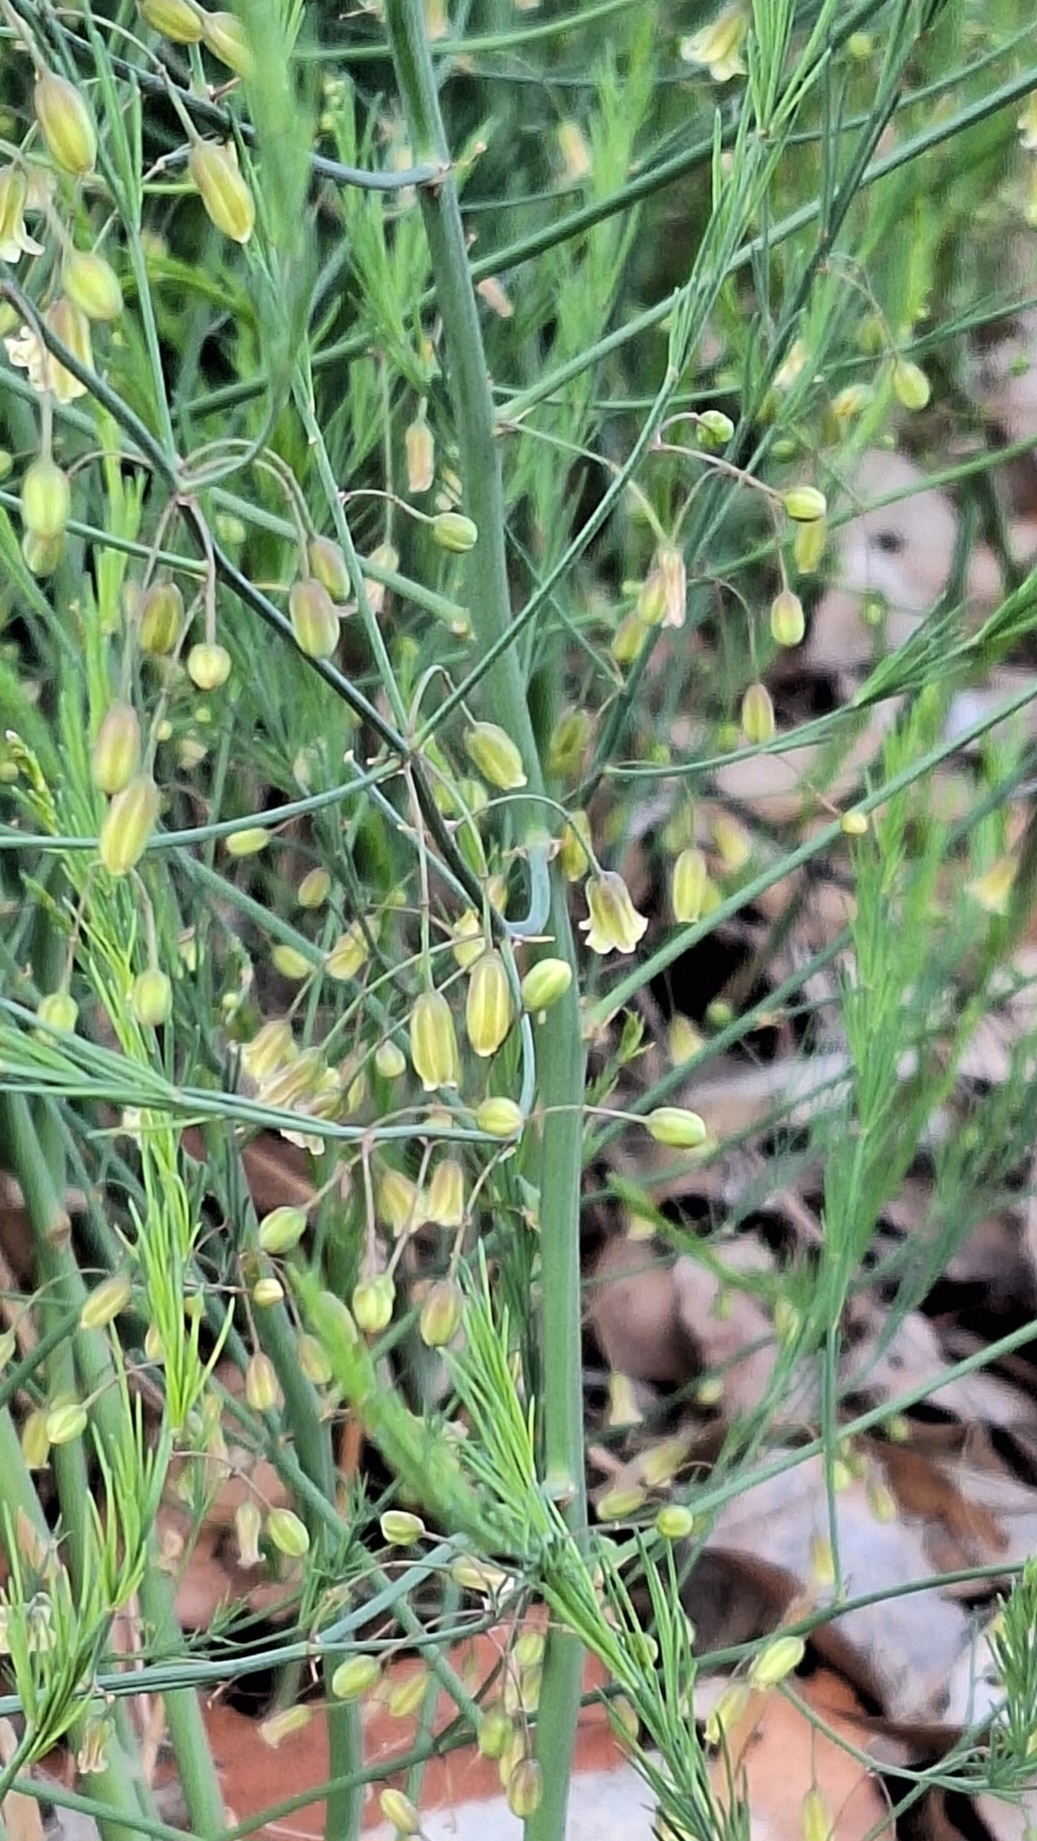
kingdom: Plantae
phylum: Tracheophyta
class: Liliopsida
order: Asparagales
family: Asparagaceae
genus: Asparagus
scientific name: Asparagus officinalis
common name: Garden asparagus
